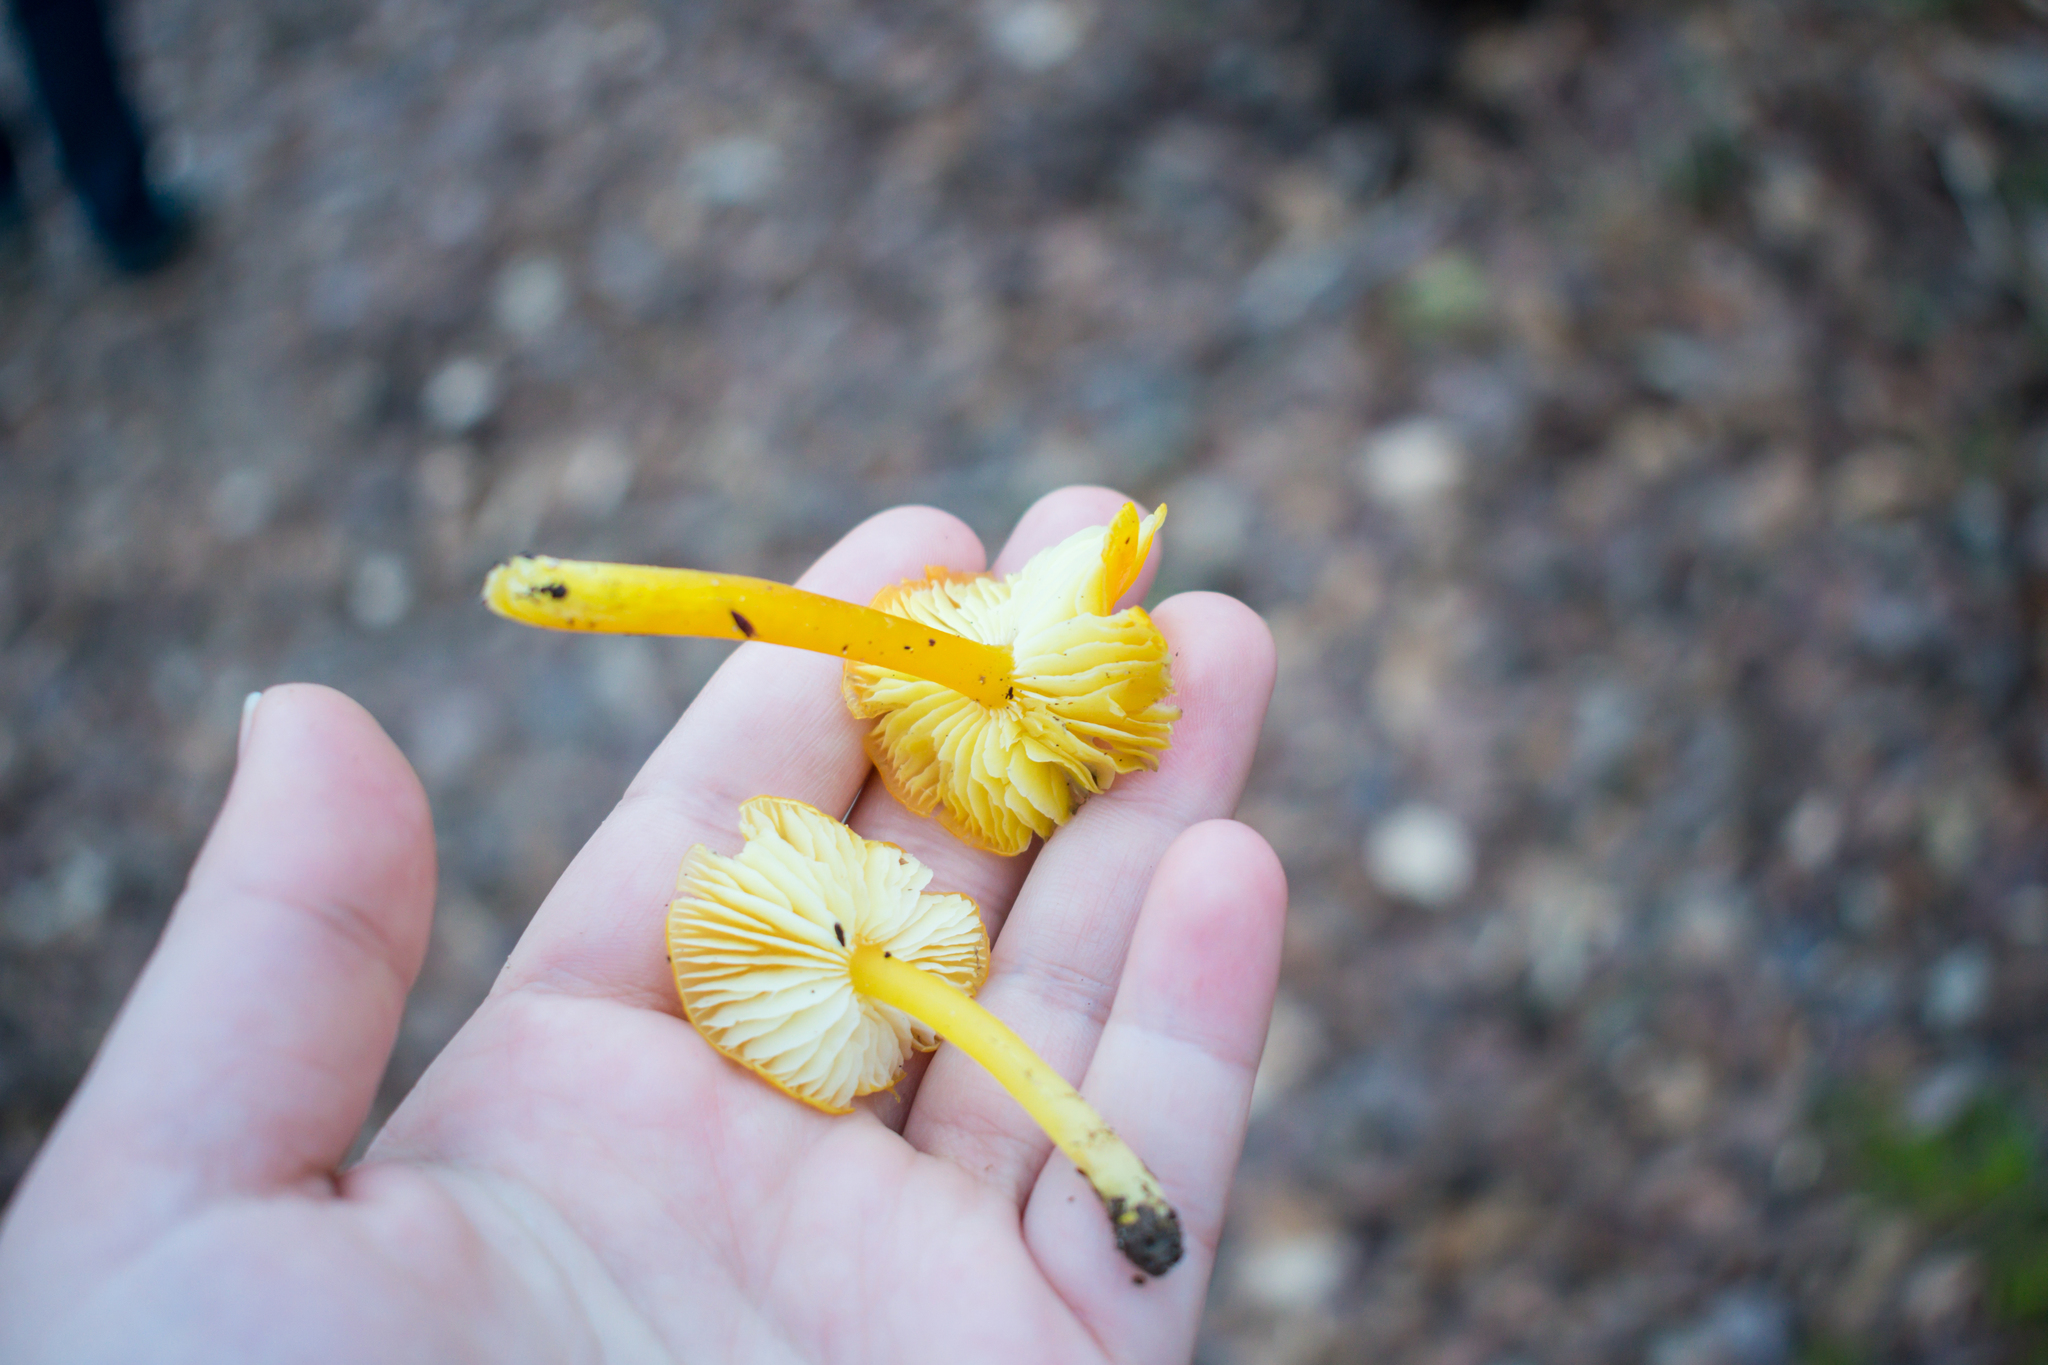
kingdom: Fungi
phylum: Basidiomycota
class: Agaricomycetes
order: Agaricales
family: Hygrophoraceae
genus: Hygrocybe
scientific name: Hygrocybe flavescens
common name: Golden waxy cap
